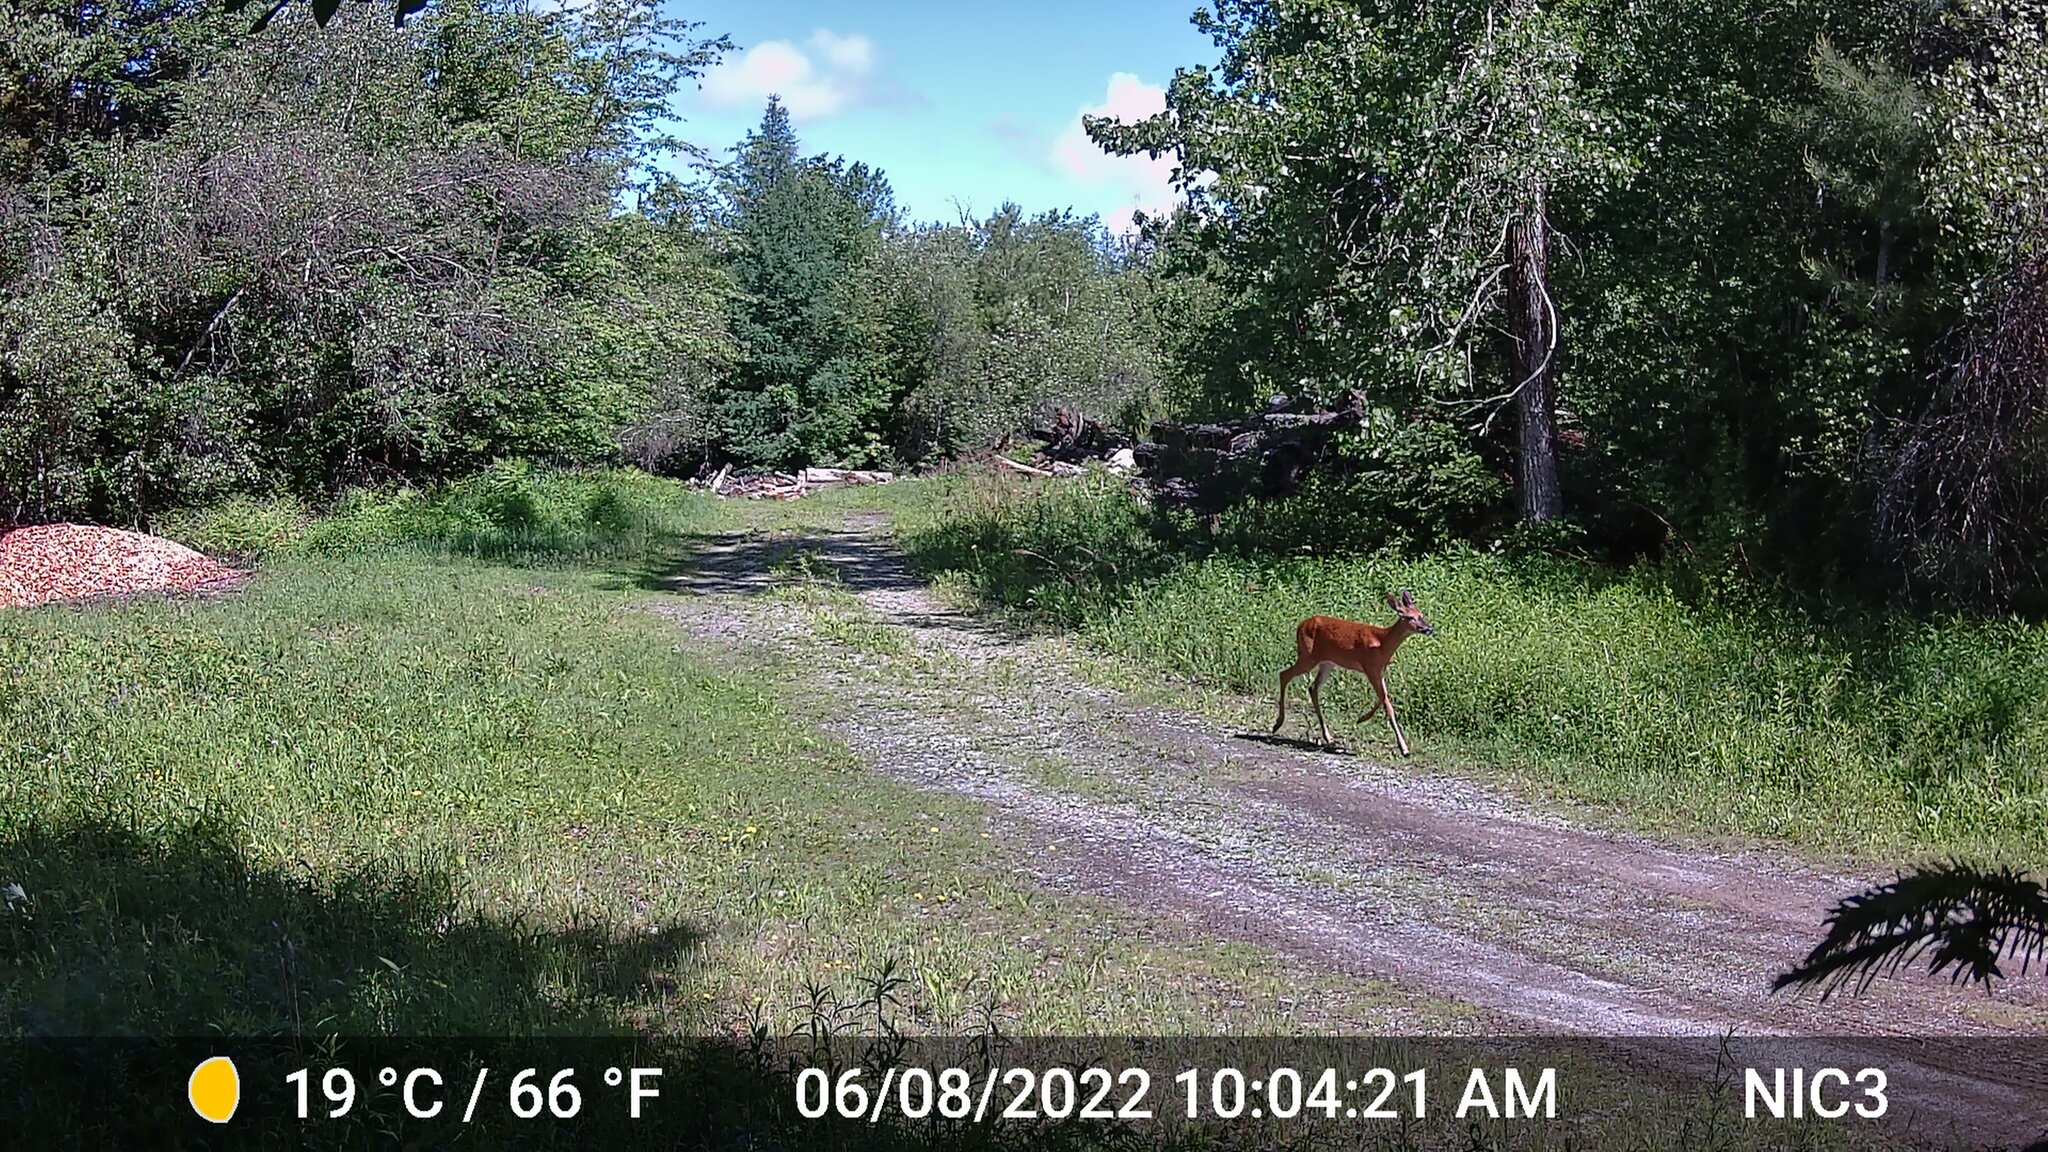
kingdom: Animalia
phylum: Chordata
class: Mammalia
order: Artiodactyla
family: Cervidae
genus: Odocoileus
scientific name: Odocoileus virginianus
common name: White-tailed deer
